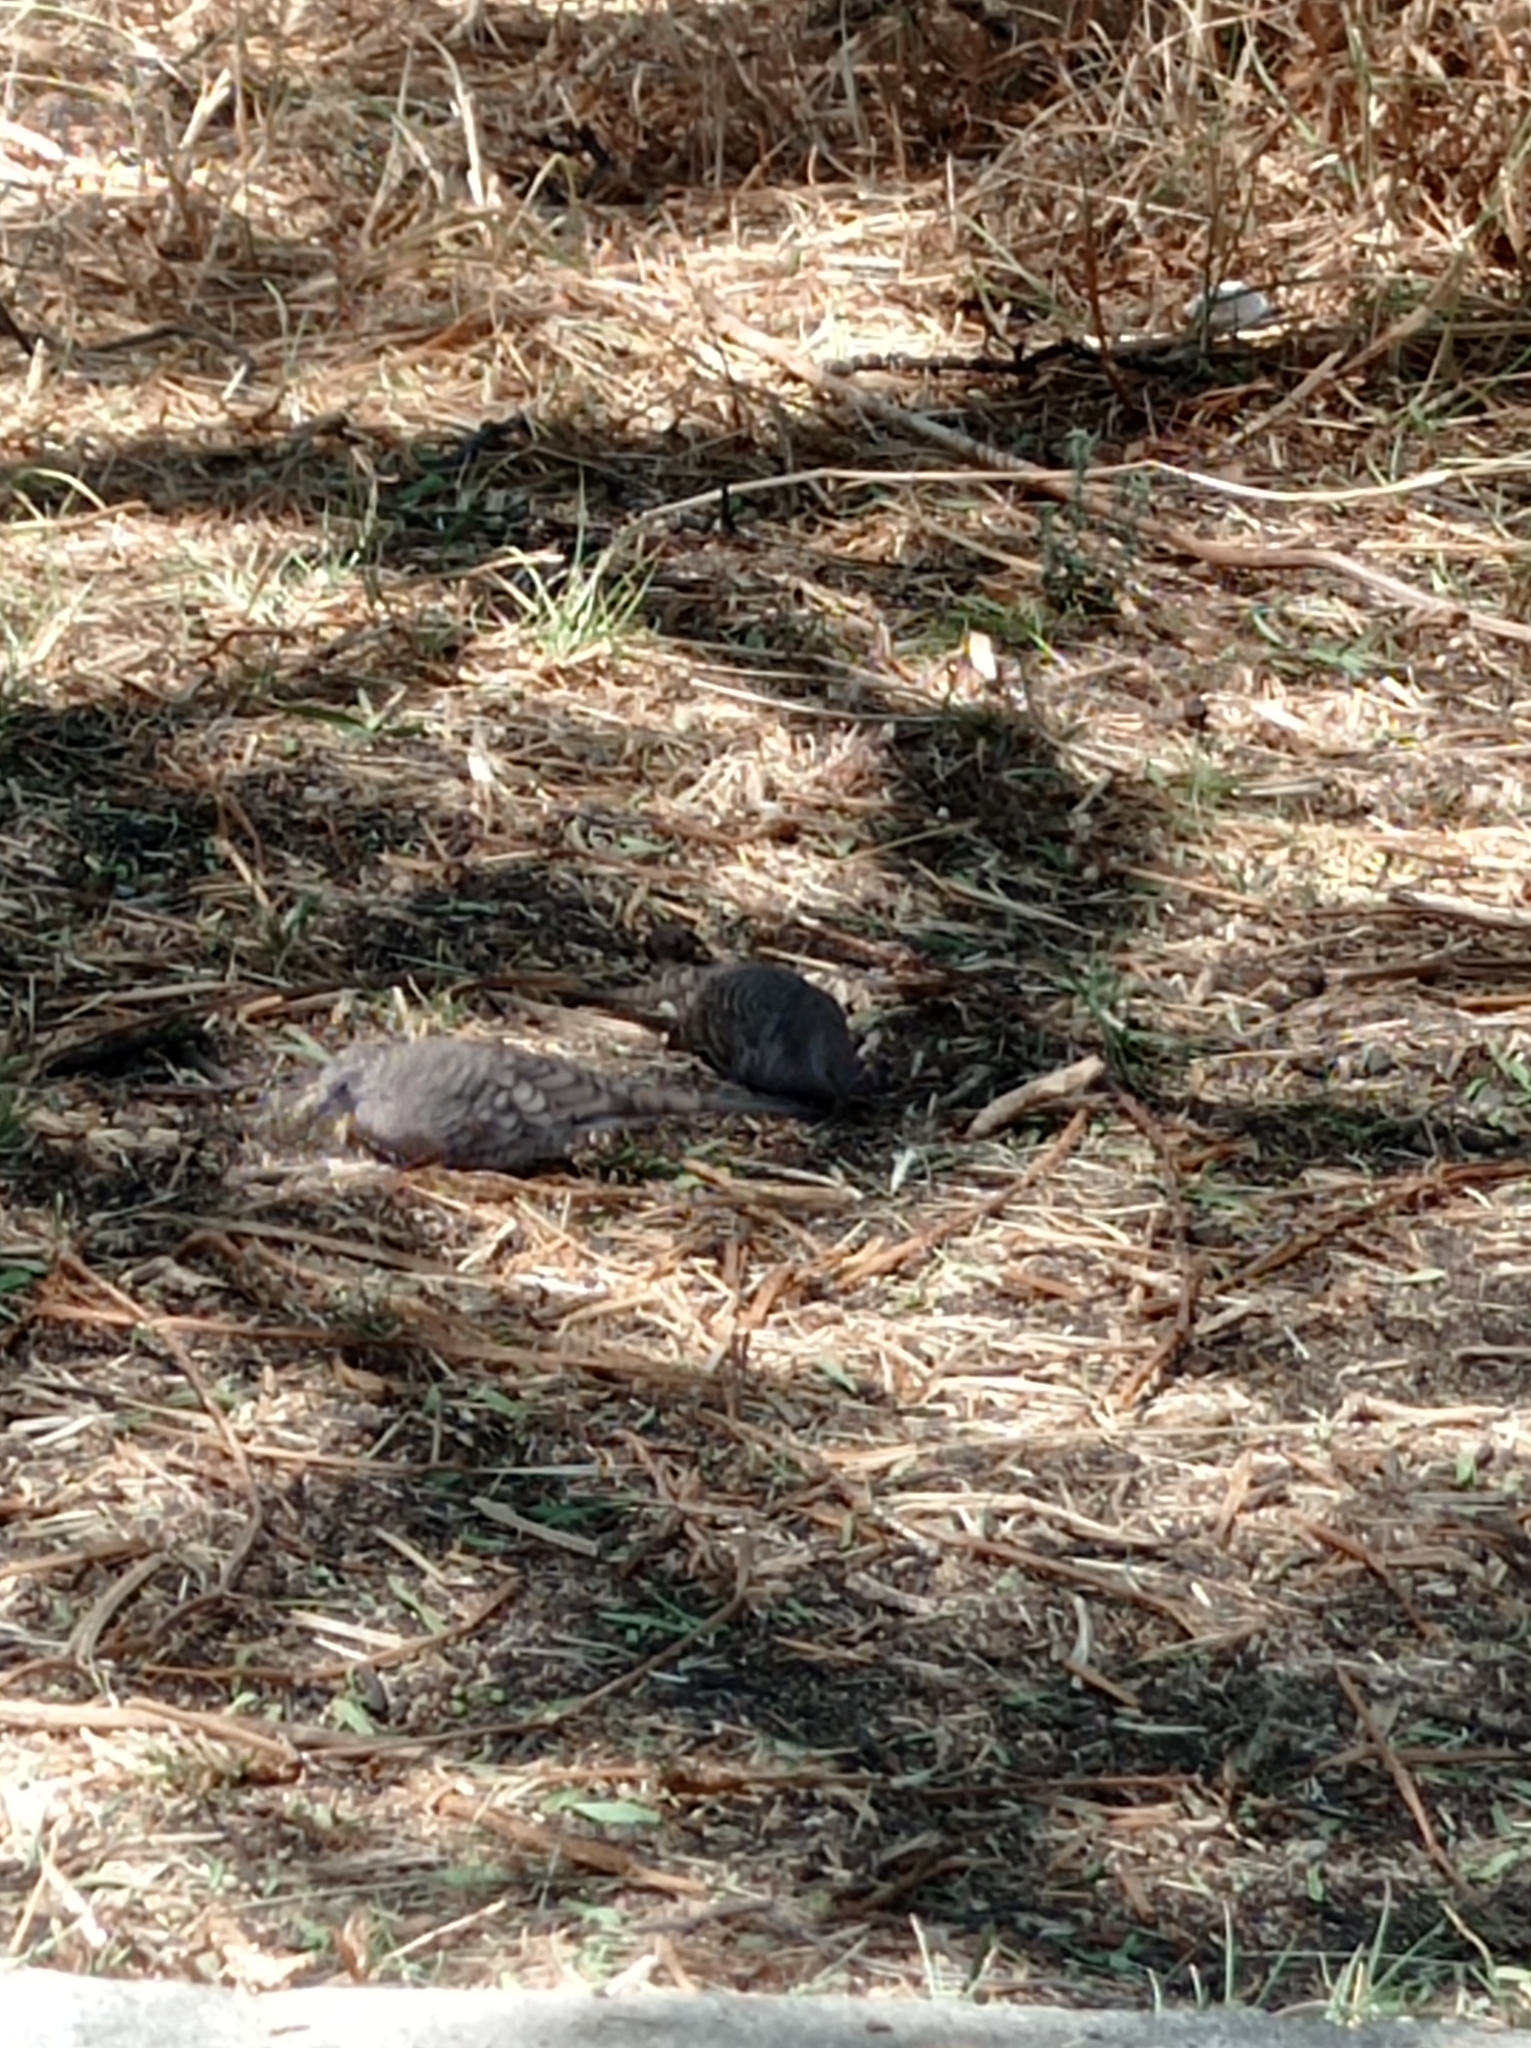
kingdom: Animalia
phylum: Chordata
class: Aves
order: Columbiformes
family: Columbidae
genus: Columbina
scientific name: Columbina inca
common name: Inca dove
